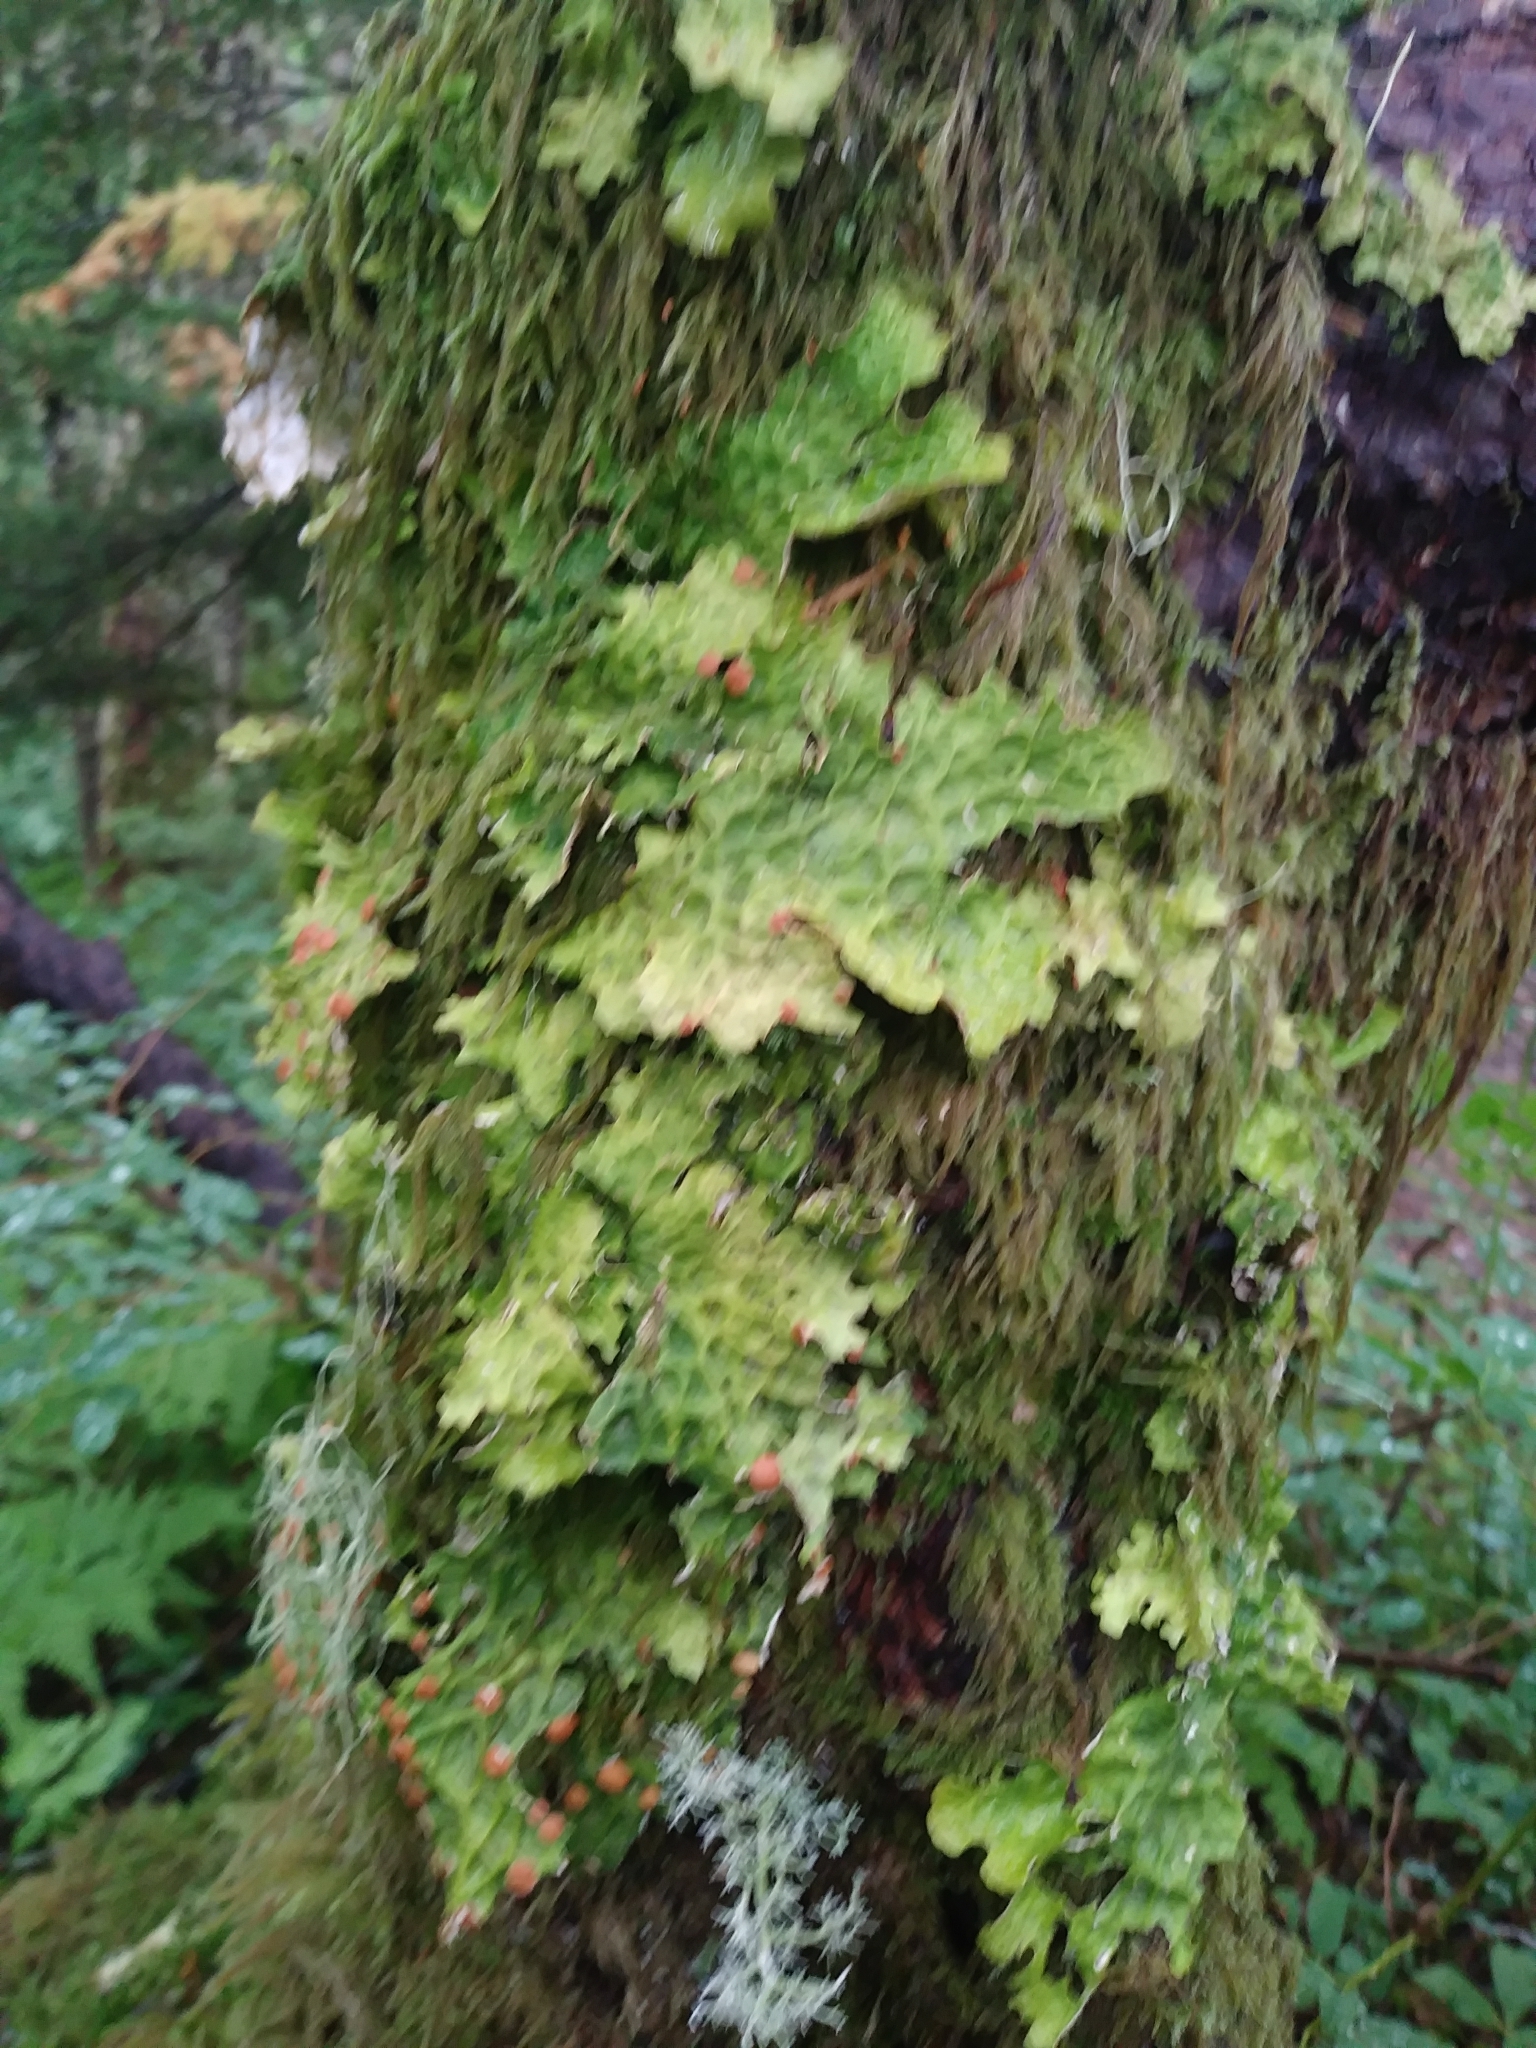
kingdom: Fungi
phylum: Ascomycota
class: Lecanoromycetes
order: Peltigerales
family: Lobariaceae
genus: Lobaria
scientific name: Lobaria pulmonaria
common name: Lungwort
